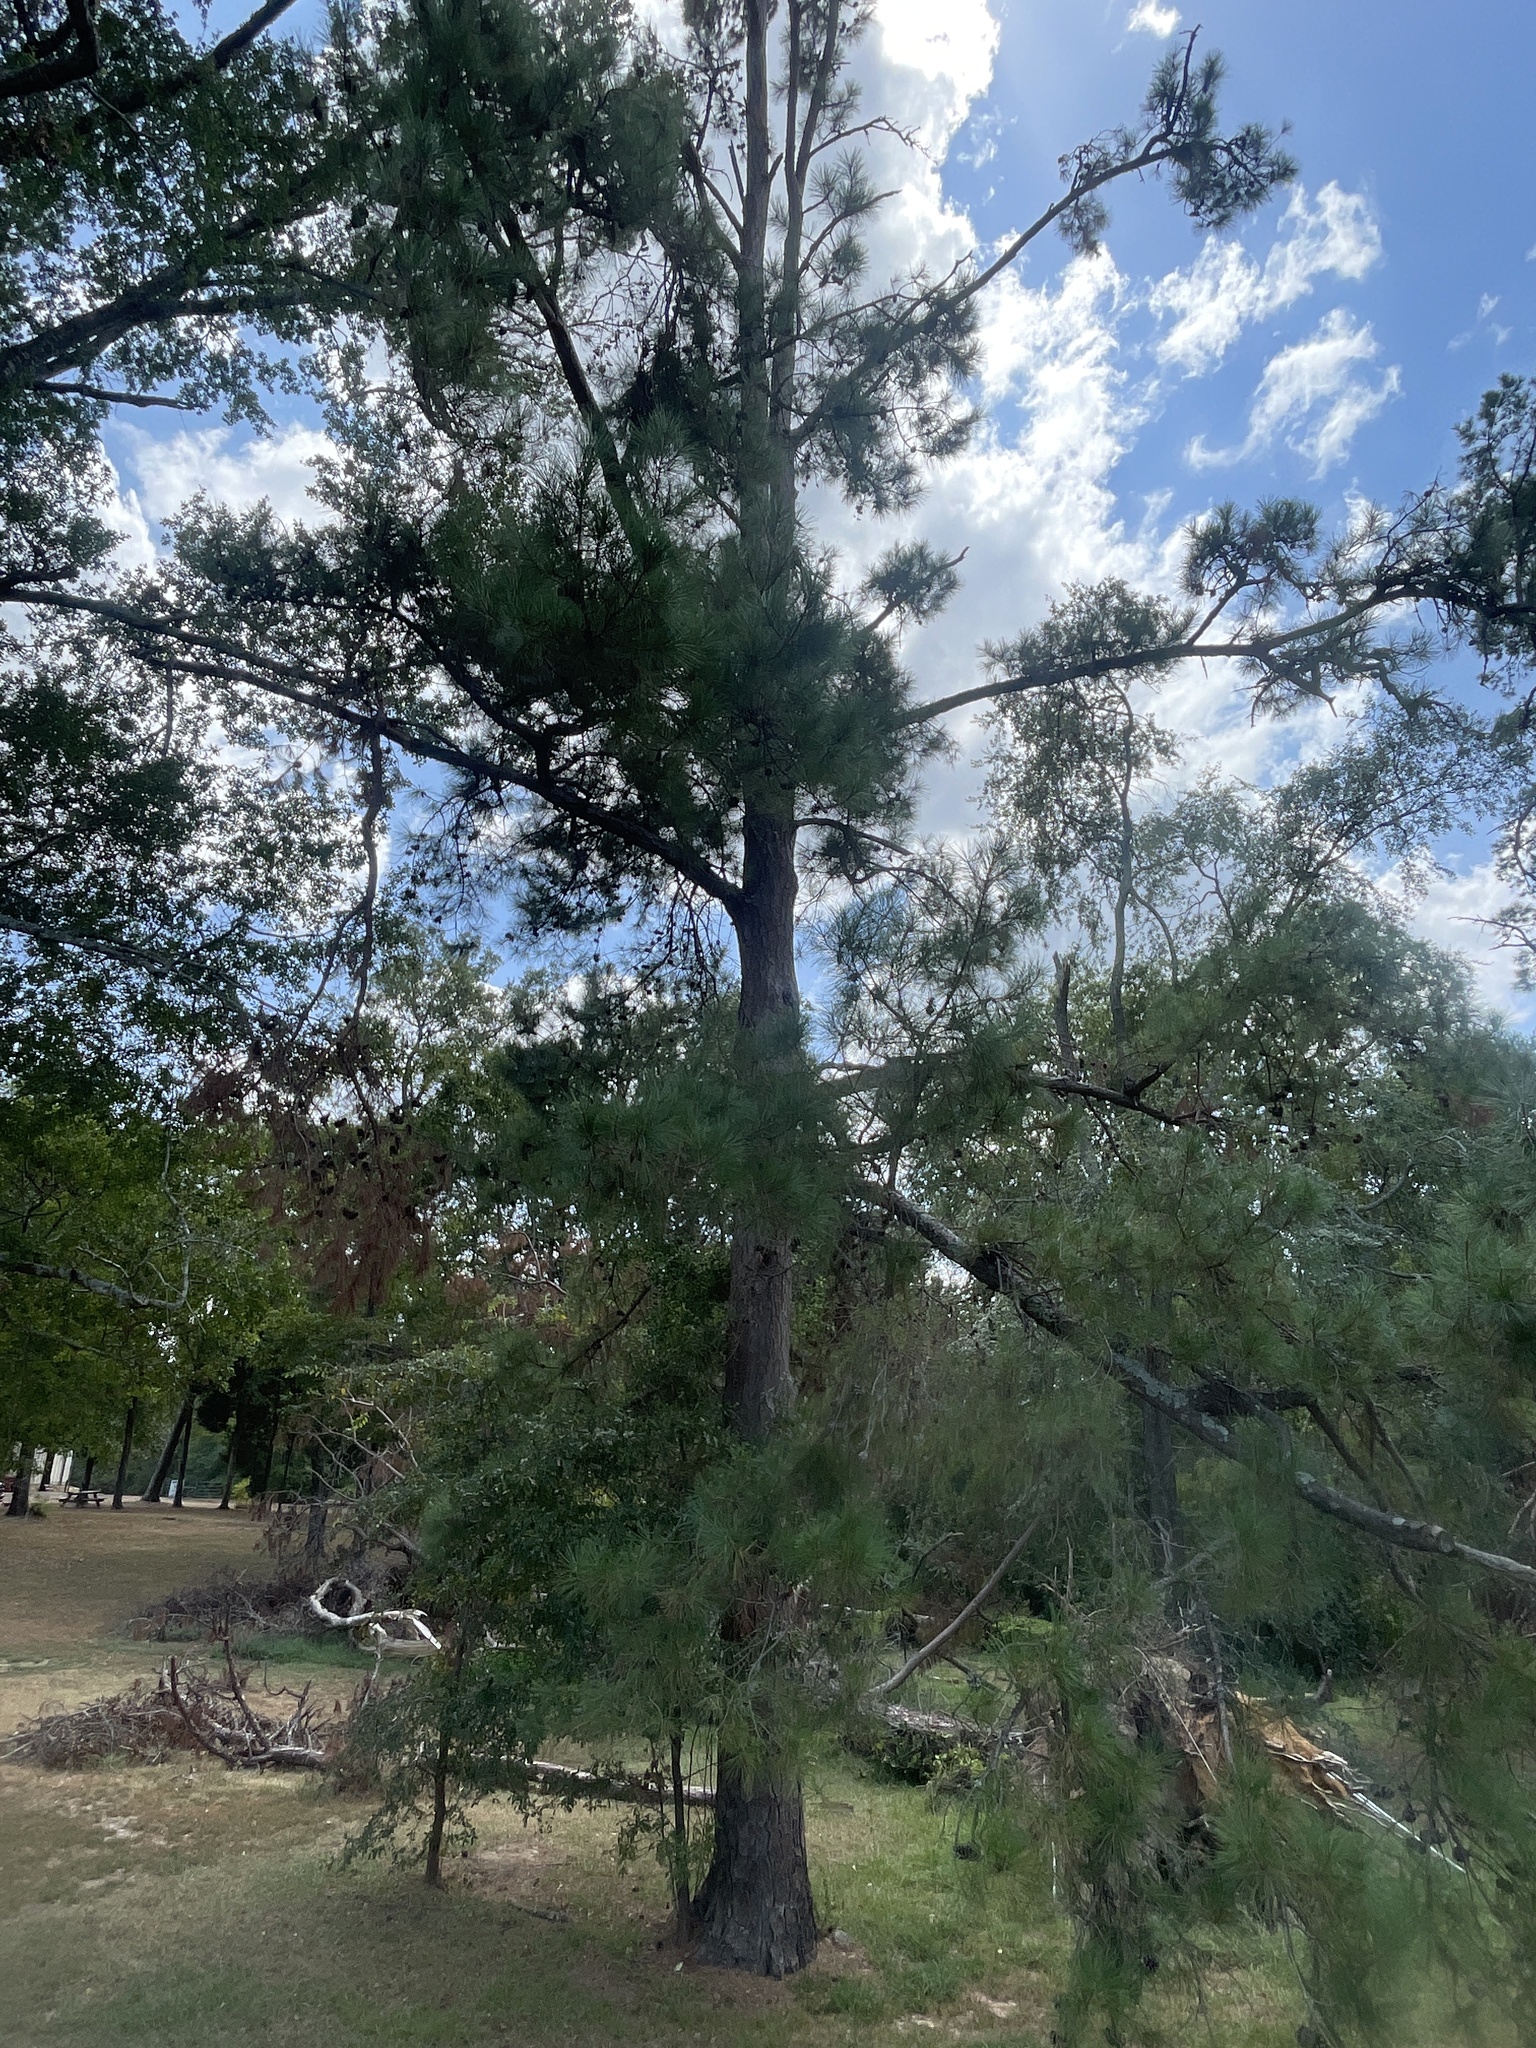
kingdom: Plantae
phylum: Tracheophyta
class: Pinopsida
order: Pinales
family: Pinaceae
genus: Pinus
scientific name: Pinus taeda
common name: Loblolly pine
